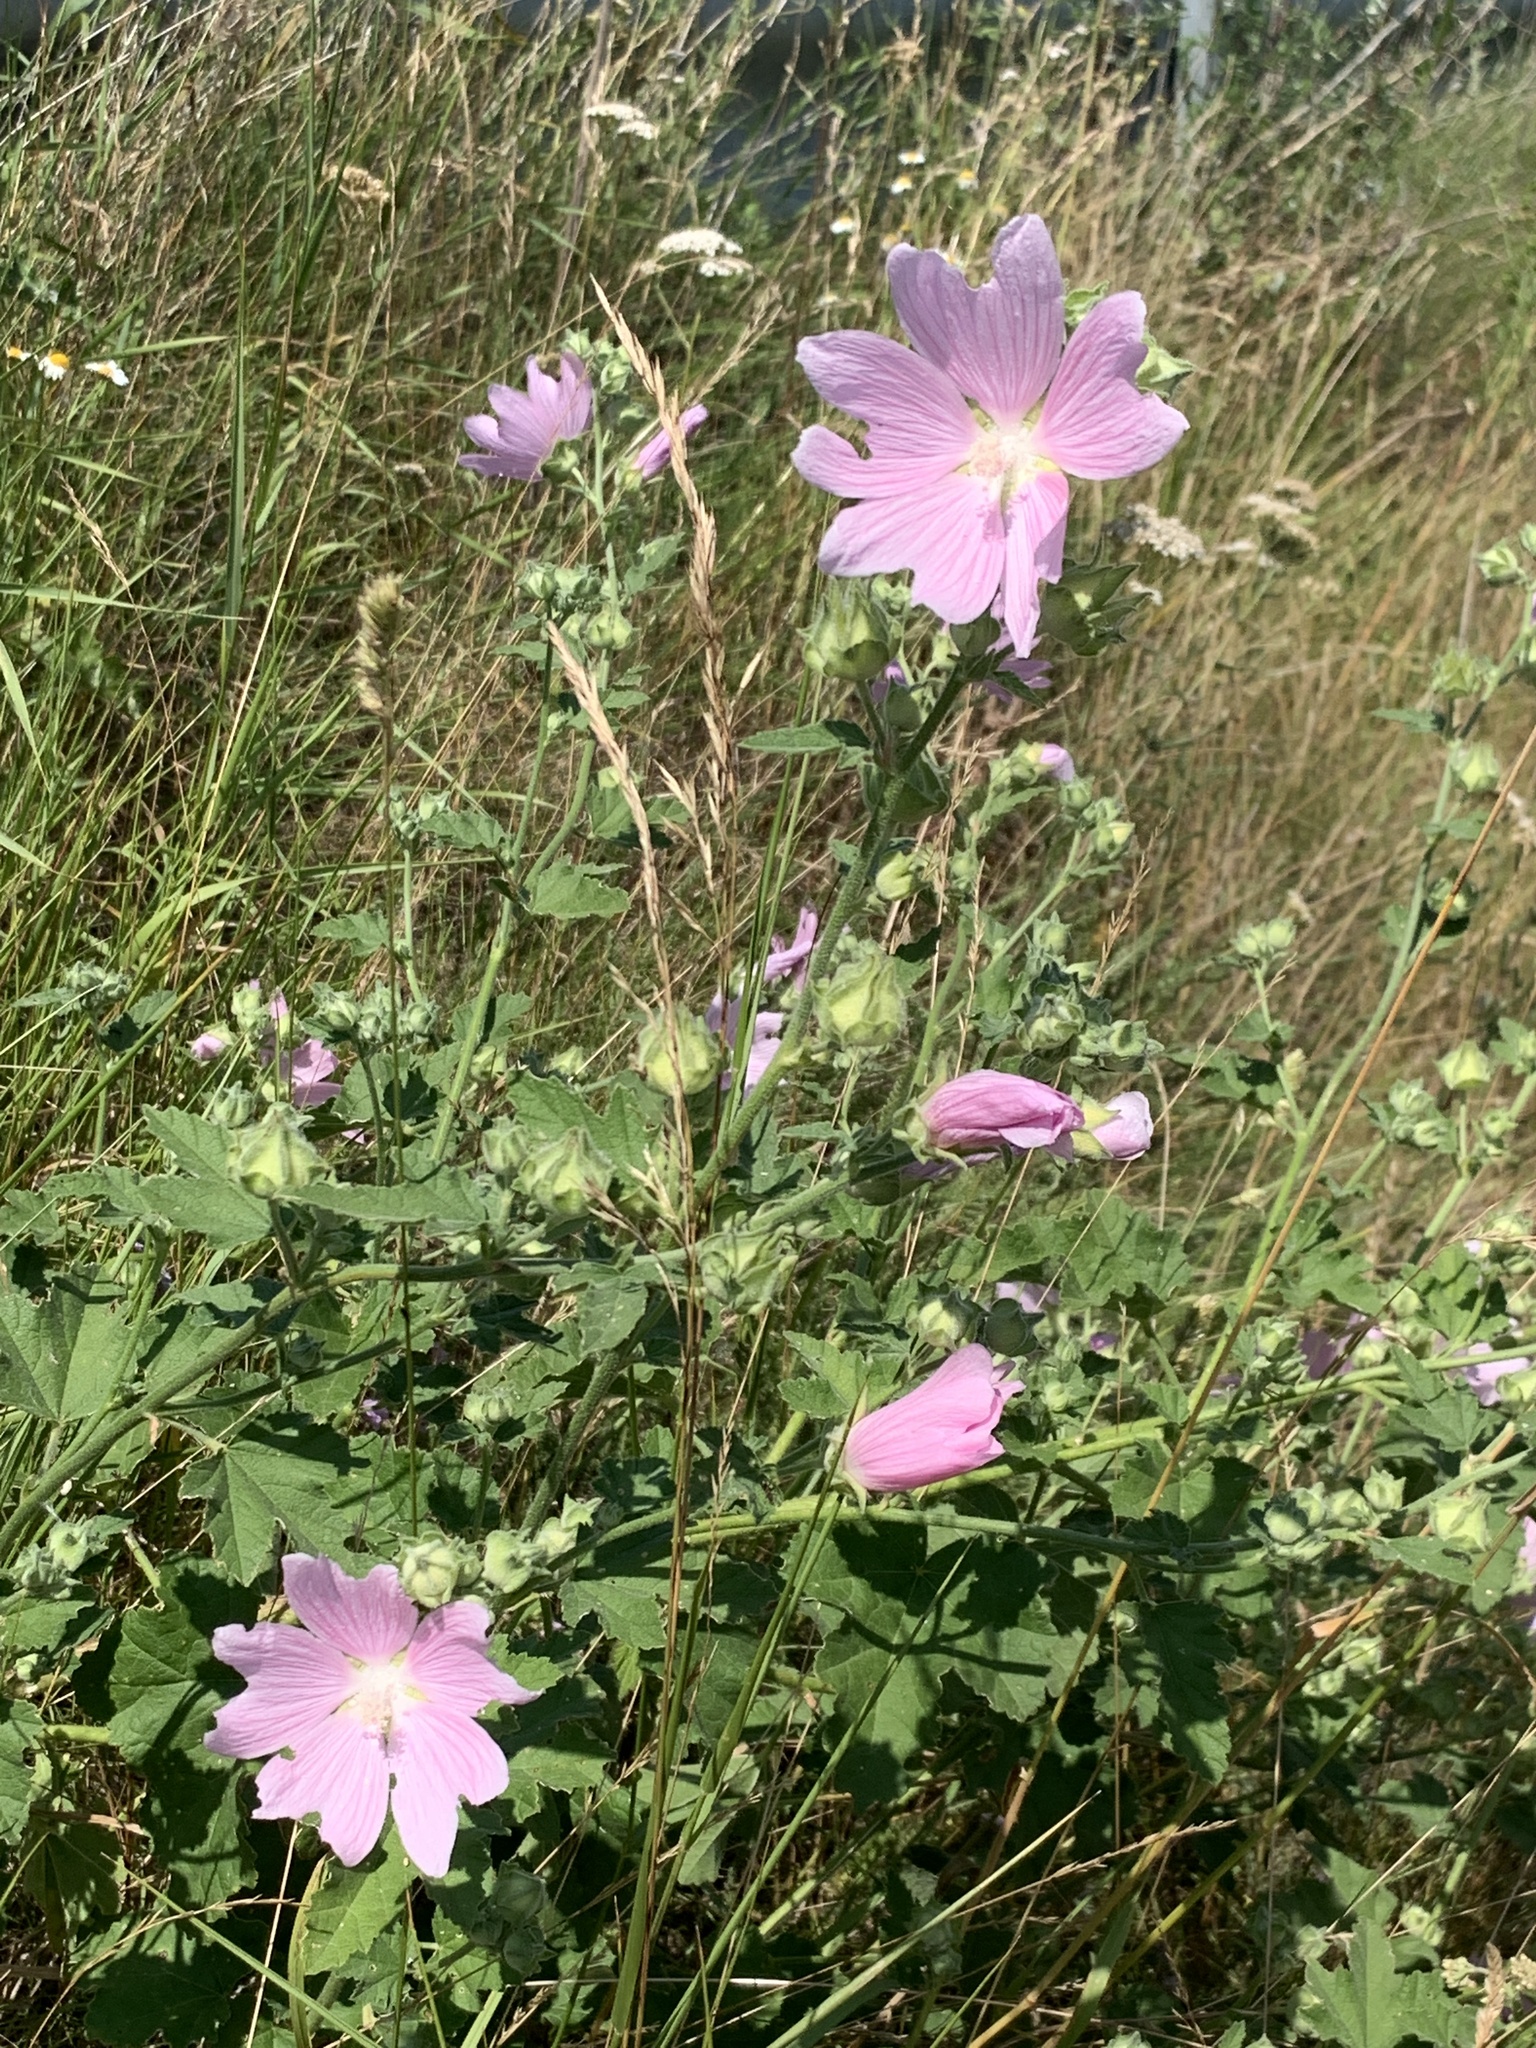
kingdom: Plantae
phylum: Tracheophyta
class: Magnoliopsida
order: Malvales
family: Malvaceae
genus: Malva
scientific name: Malva thuringiaca
